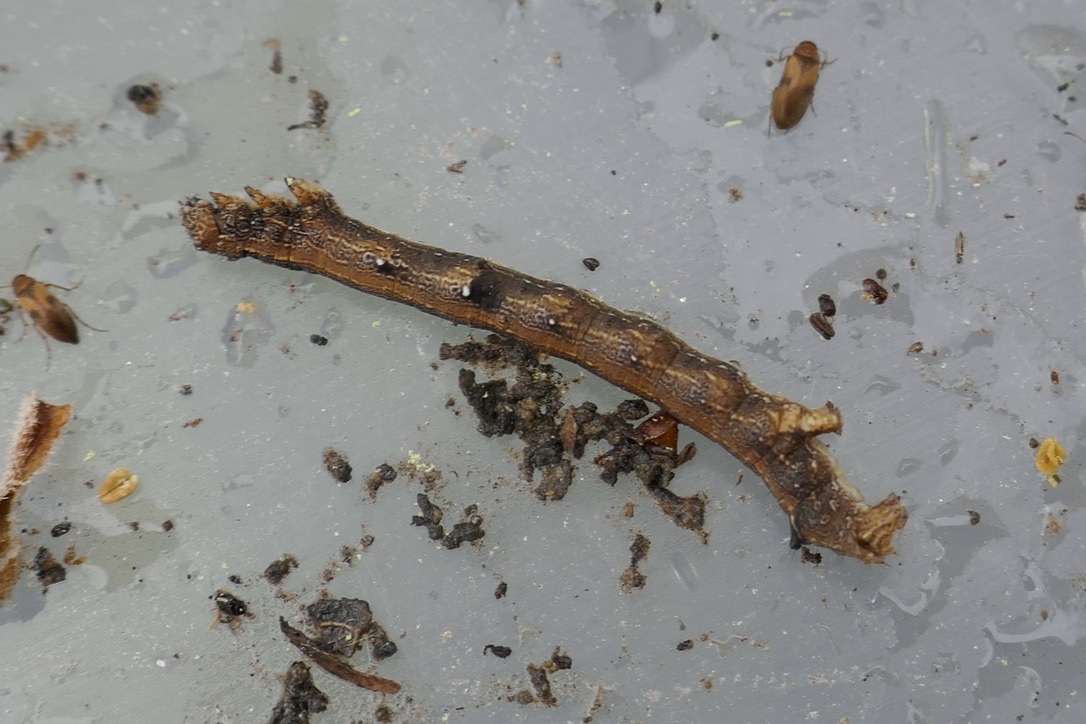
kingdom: Animalia
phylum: Arthropoda
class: Insecta
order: Lepidoptera
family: Geometridae
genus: Colotois
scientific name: Colotois pennaria
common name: Feathered thorn
